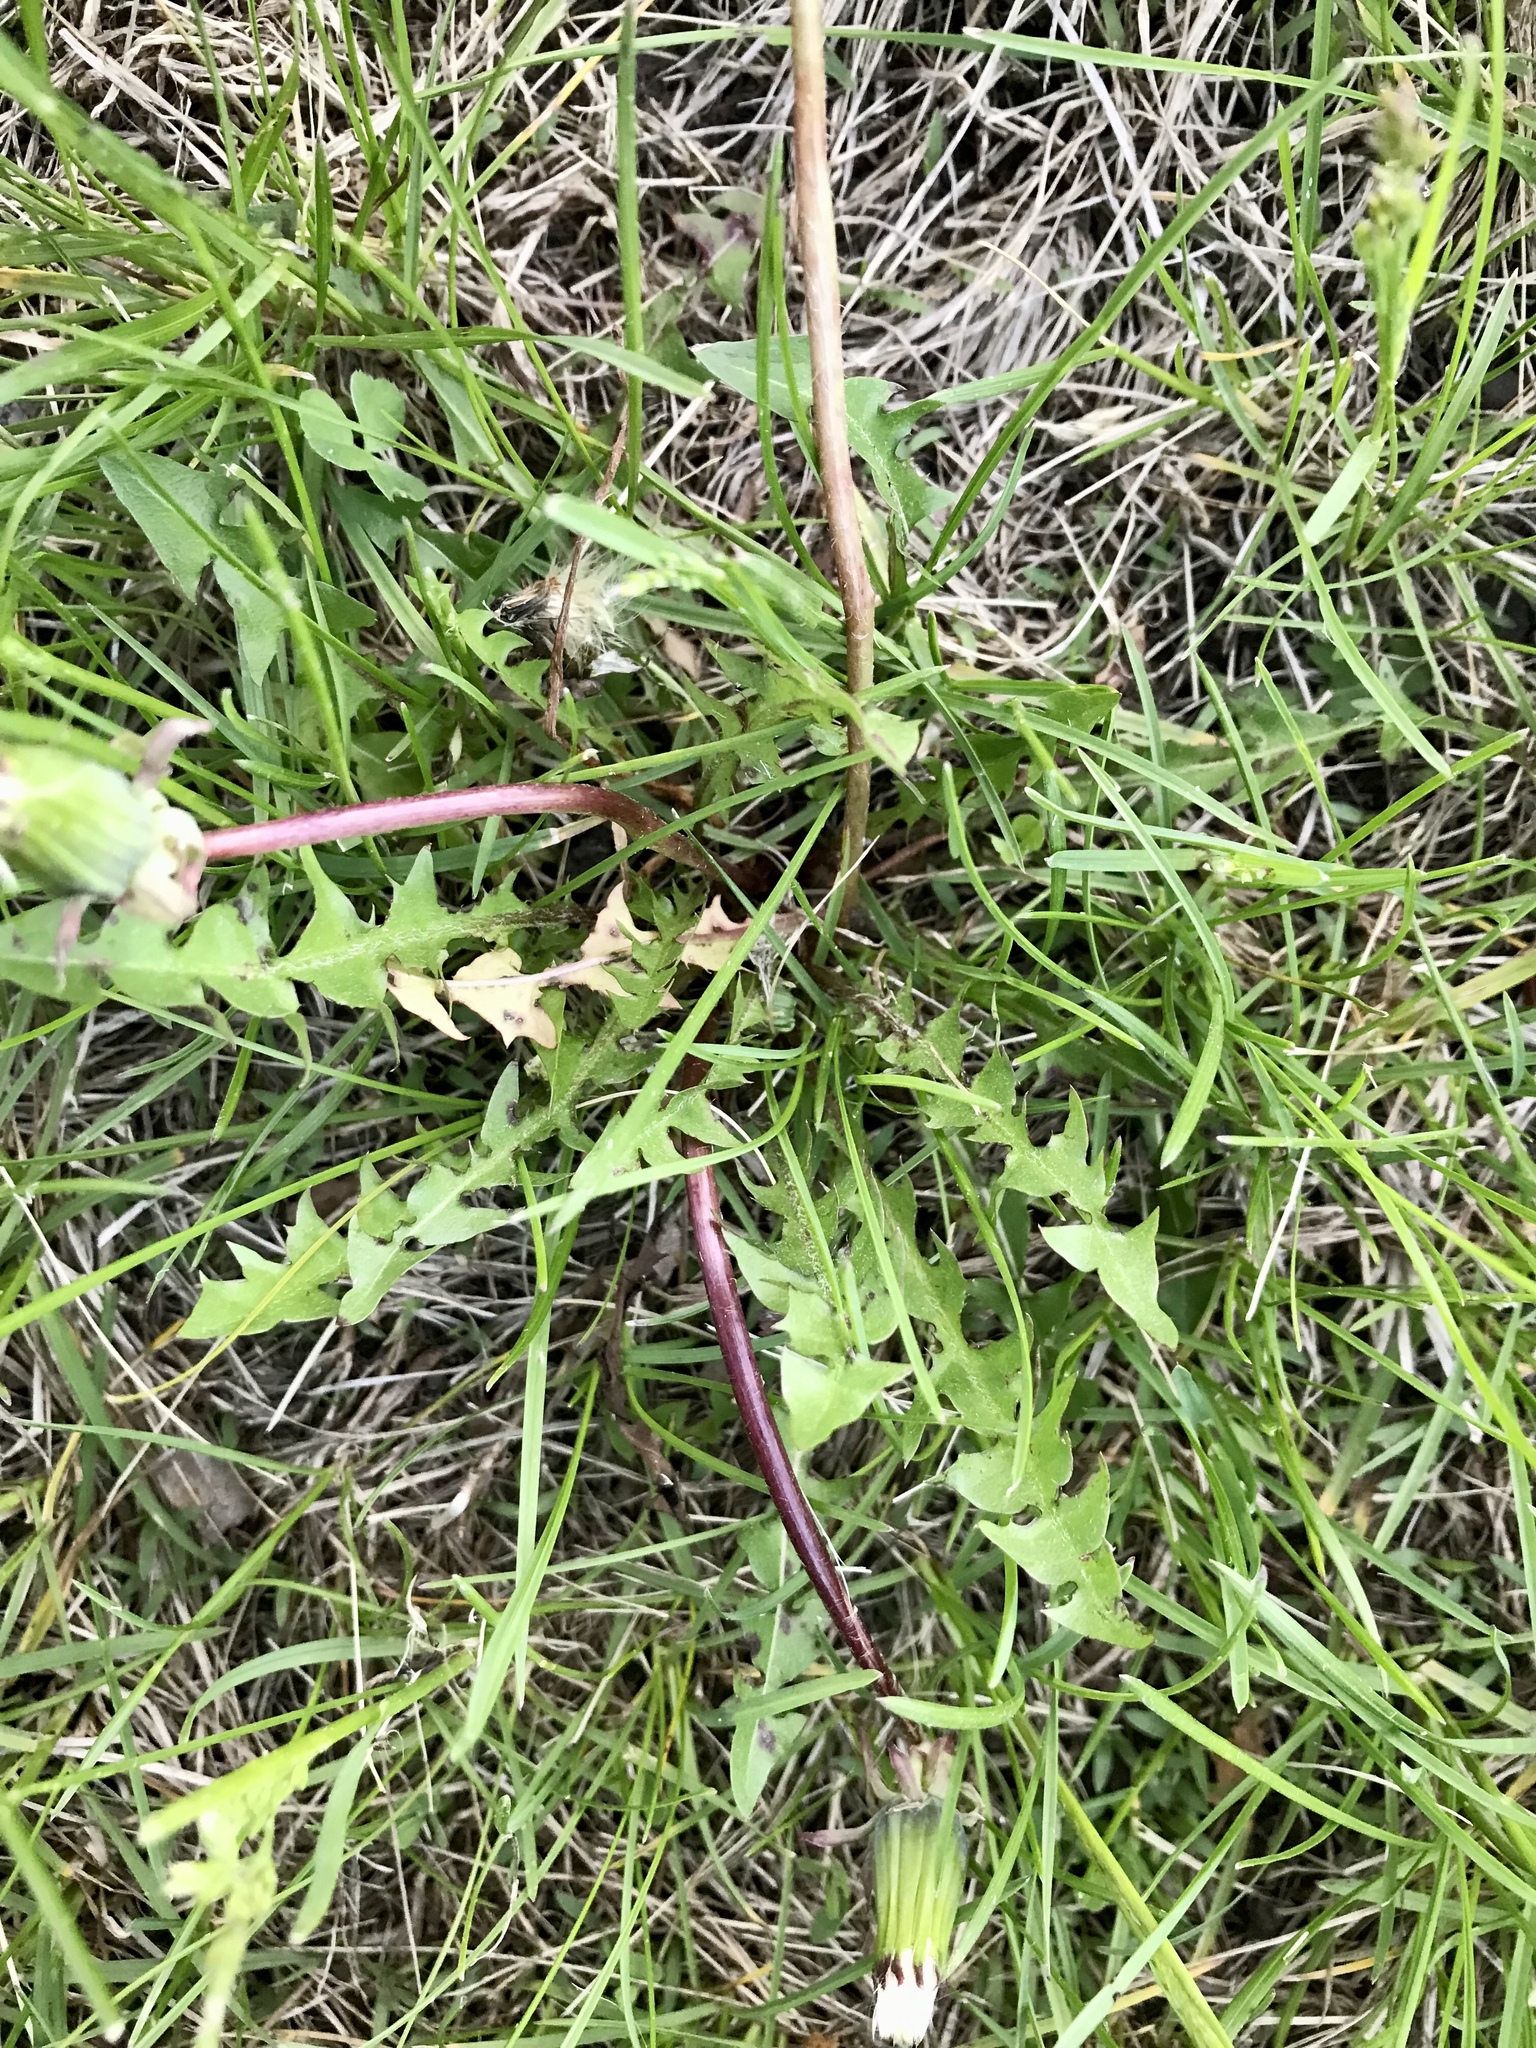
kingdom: Plantae
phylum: Tracheophyta
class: Magnoliopsida
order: Asterales
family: Asteraceae
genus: Taraxacum
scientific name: Taraxacum officinale
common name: Common dandelion
